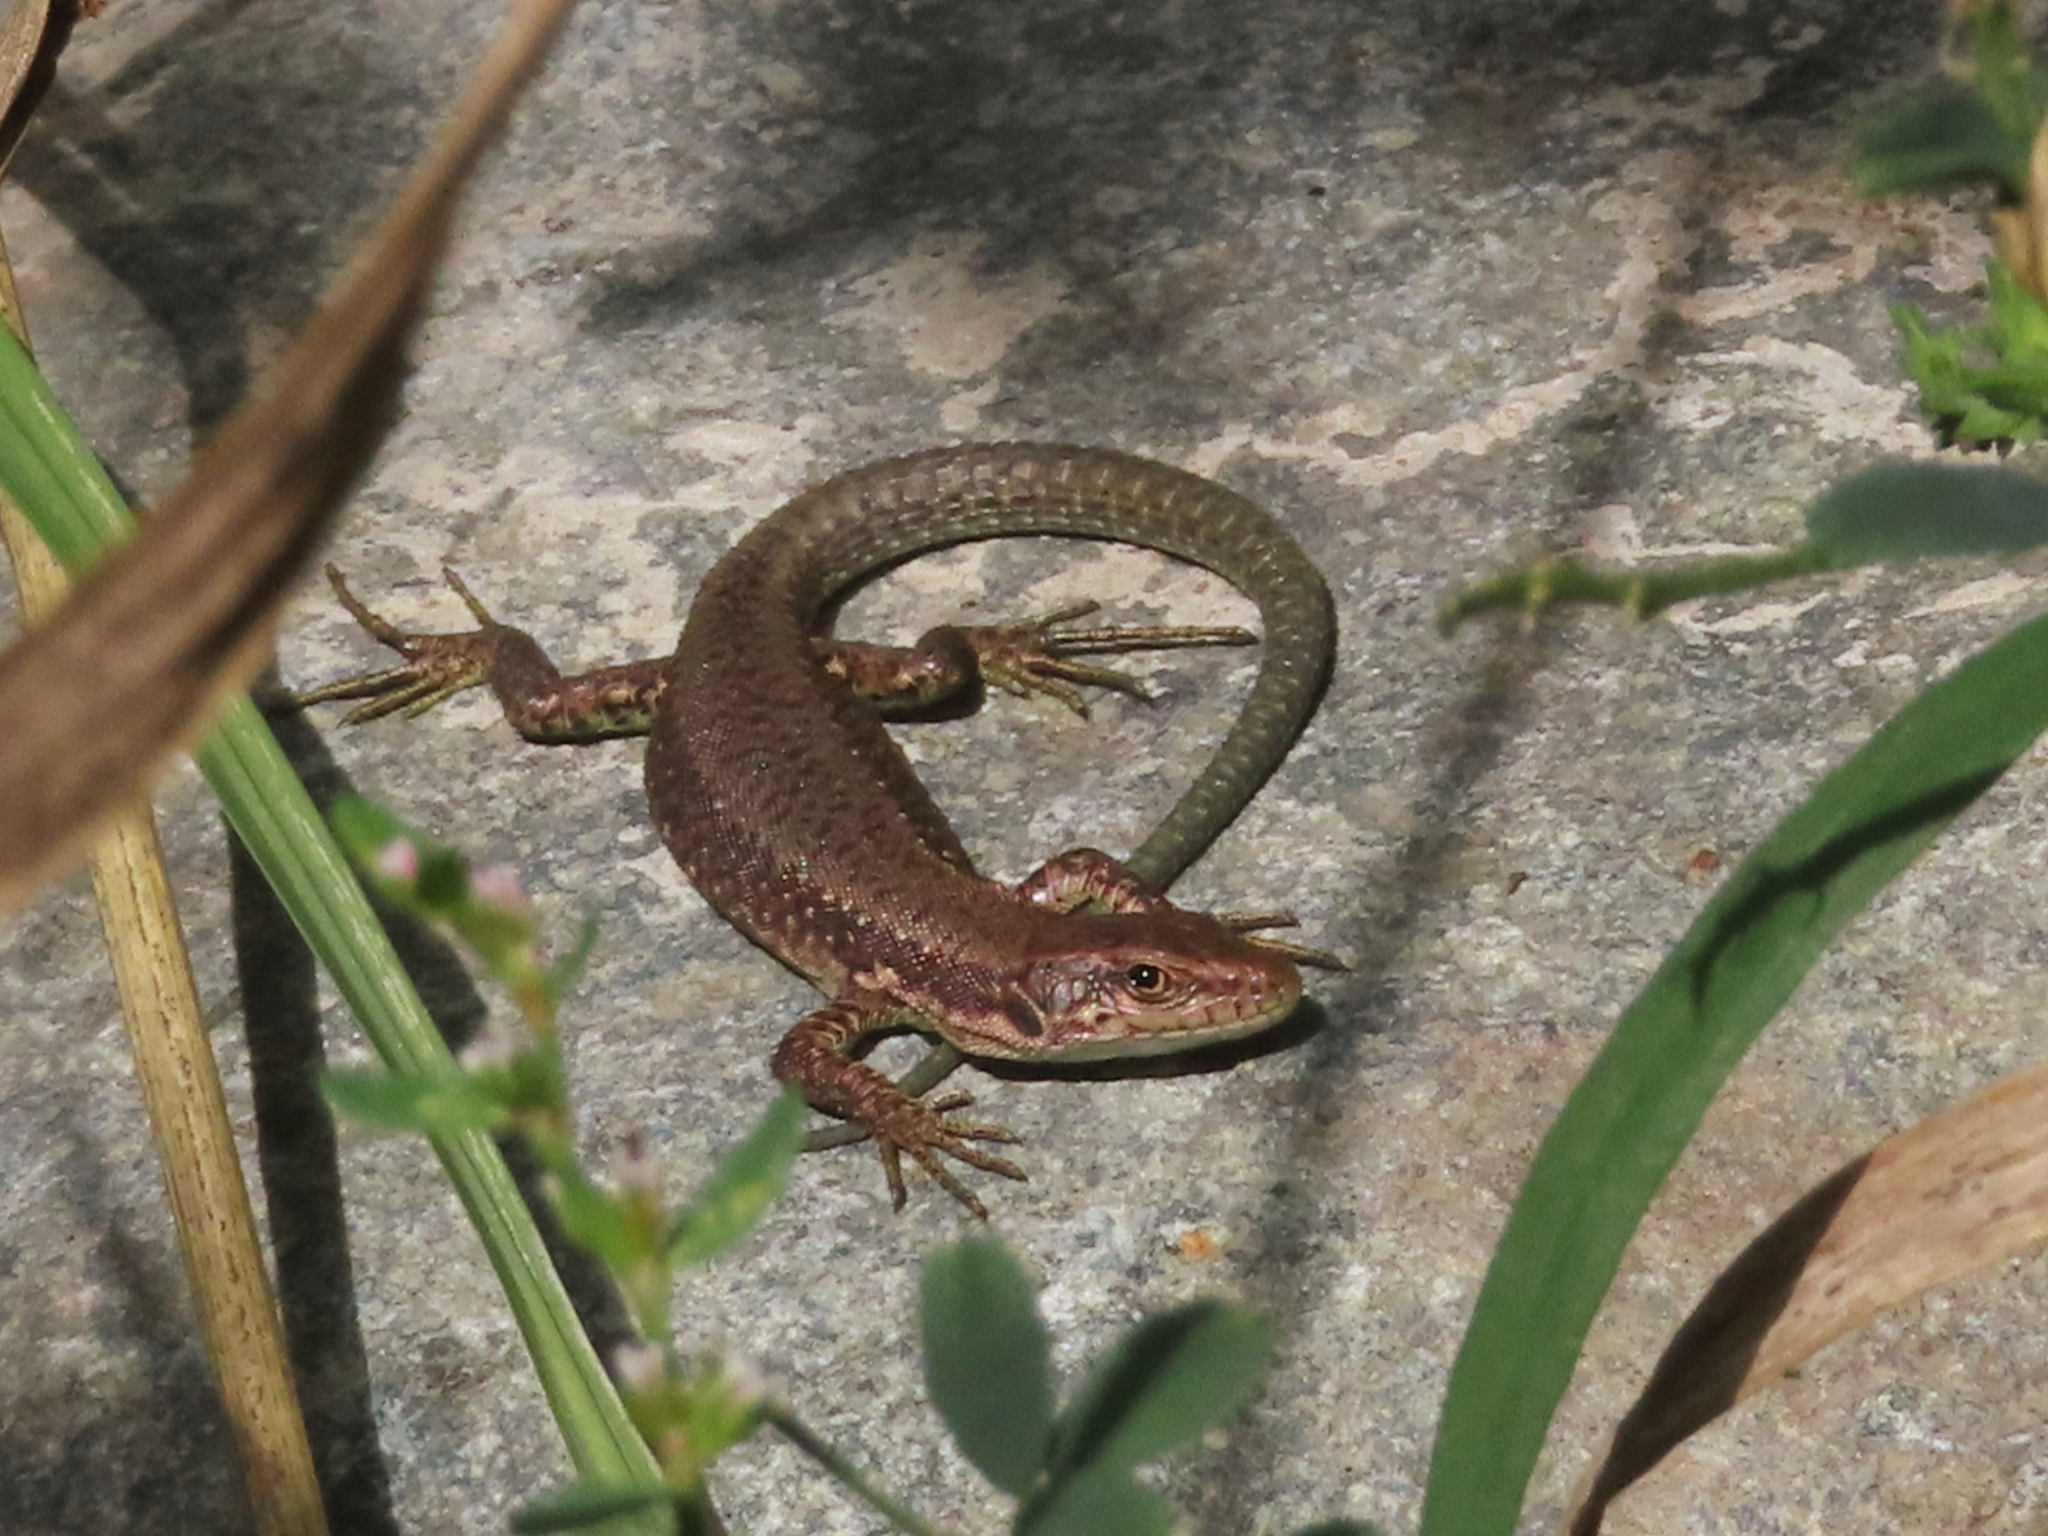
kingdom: Animalia
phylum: Chordata
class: Squamata
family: Lacertidae
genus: Darevskia
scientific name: Darevskia armeniaca
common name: Armenian lizard
